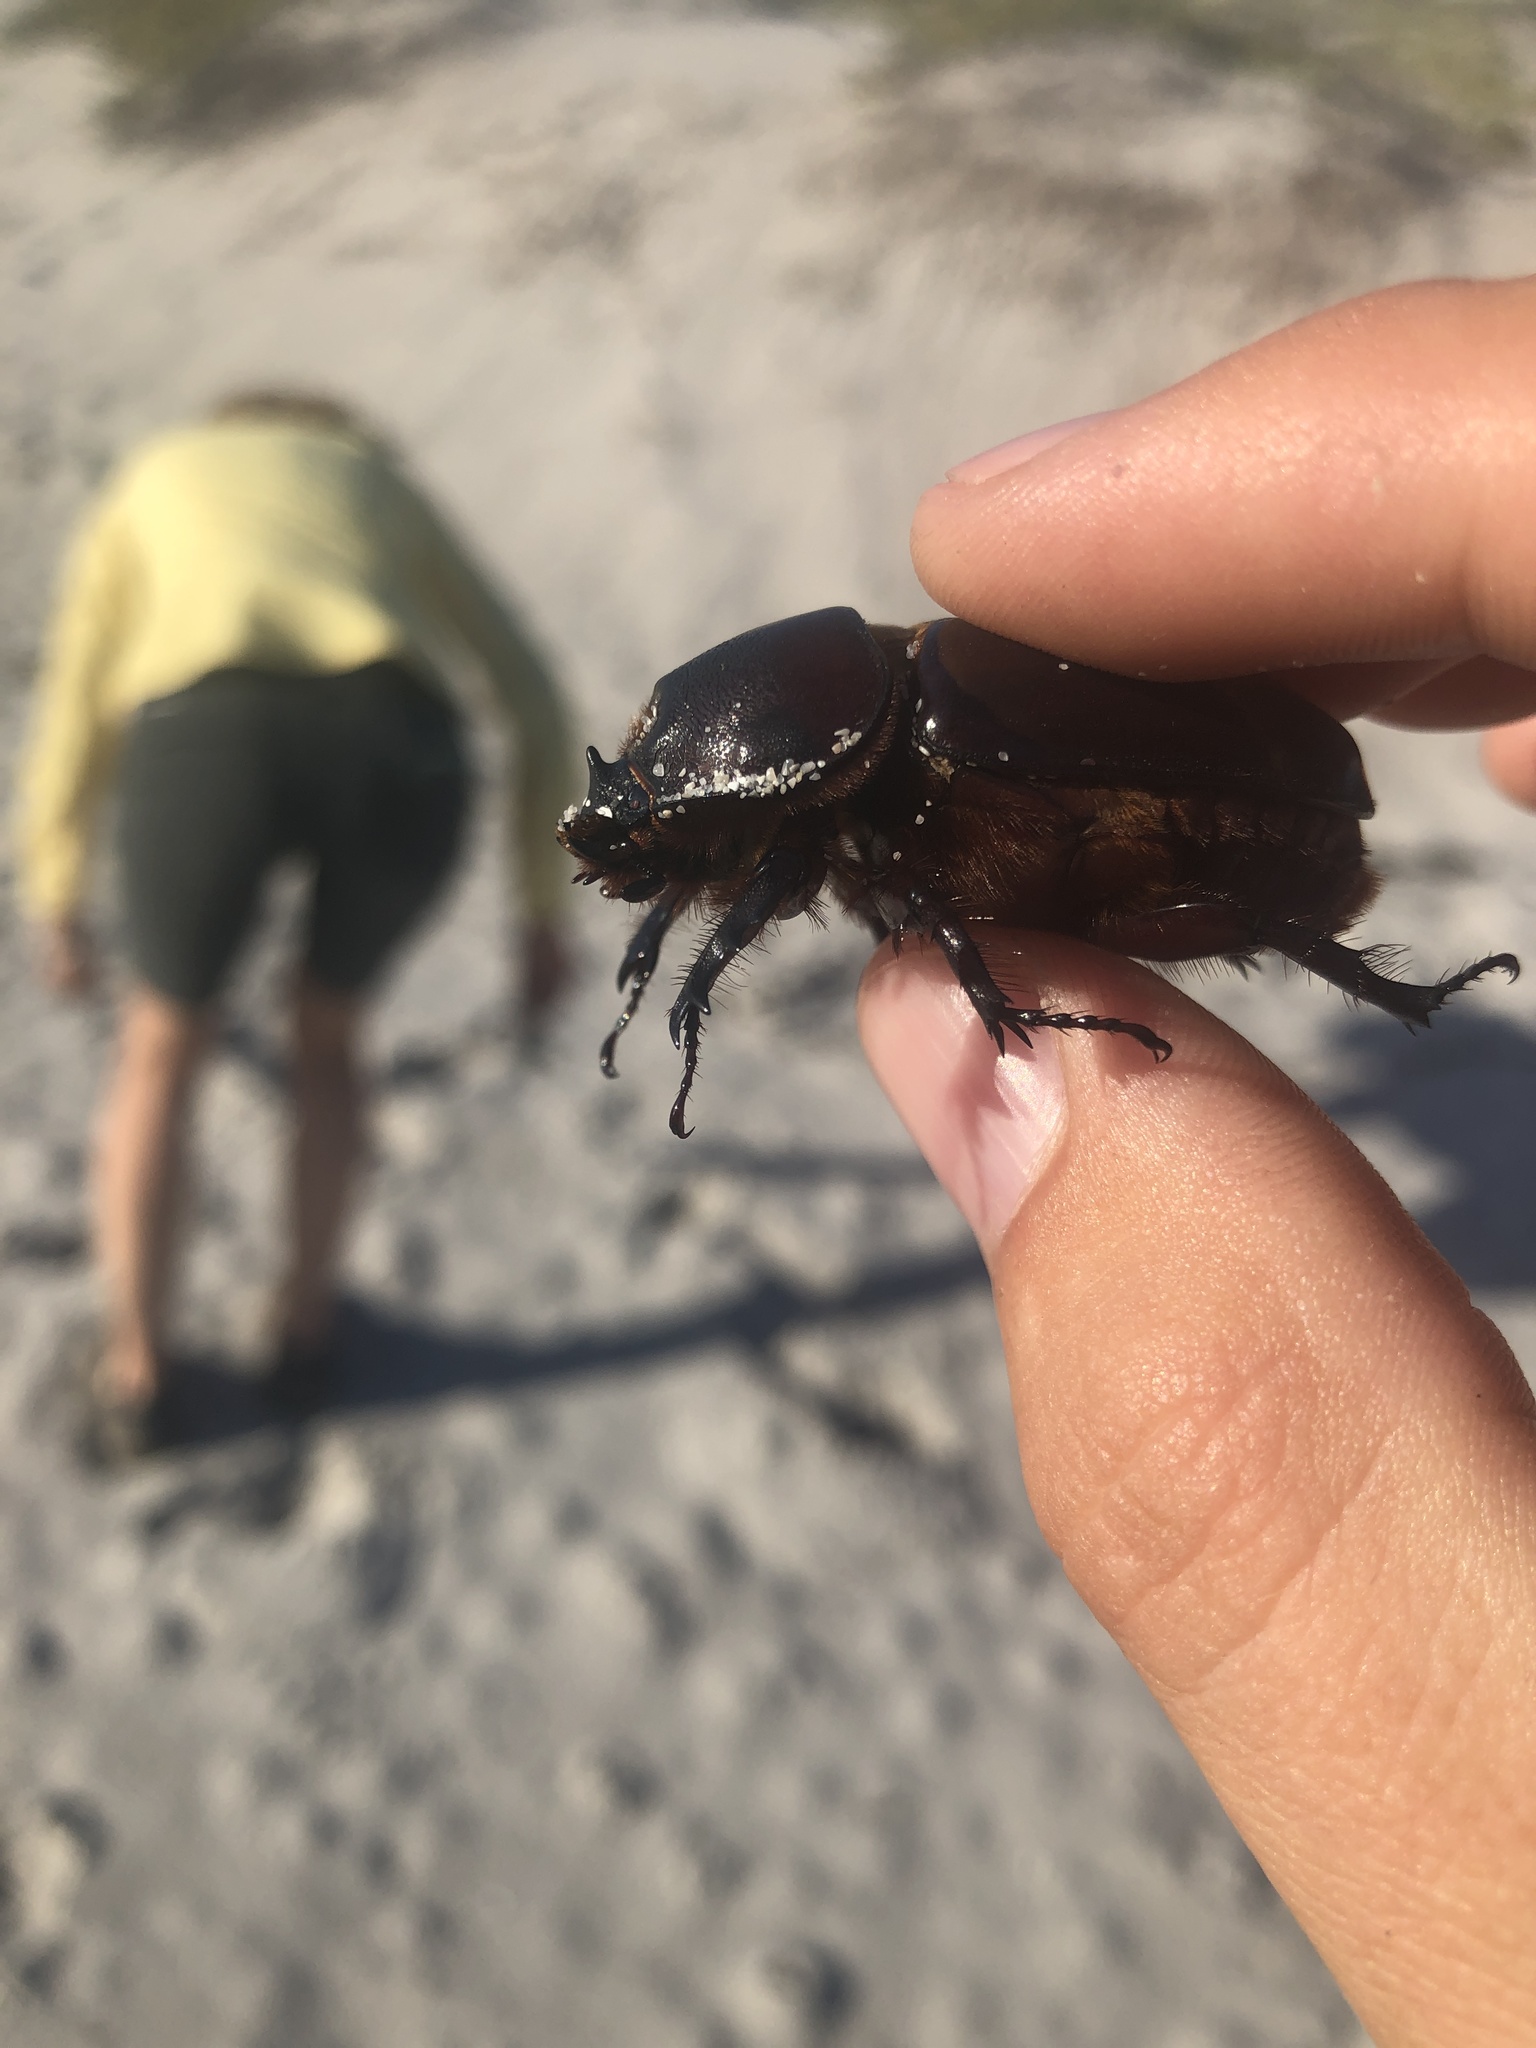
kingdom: Animalia
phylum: Arthropoda
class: Insecta
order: Coleoptera
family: Scarabaeidae
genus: Oryctes
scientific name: Oryctes boas
